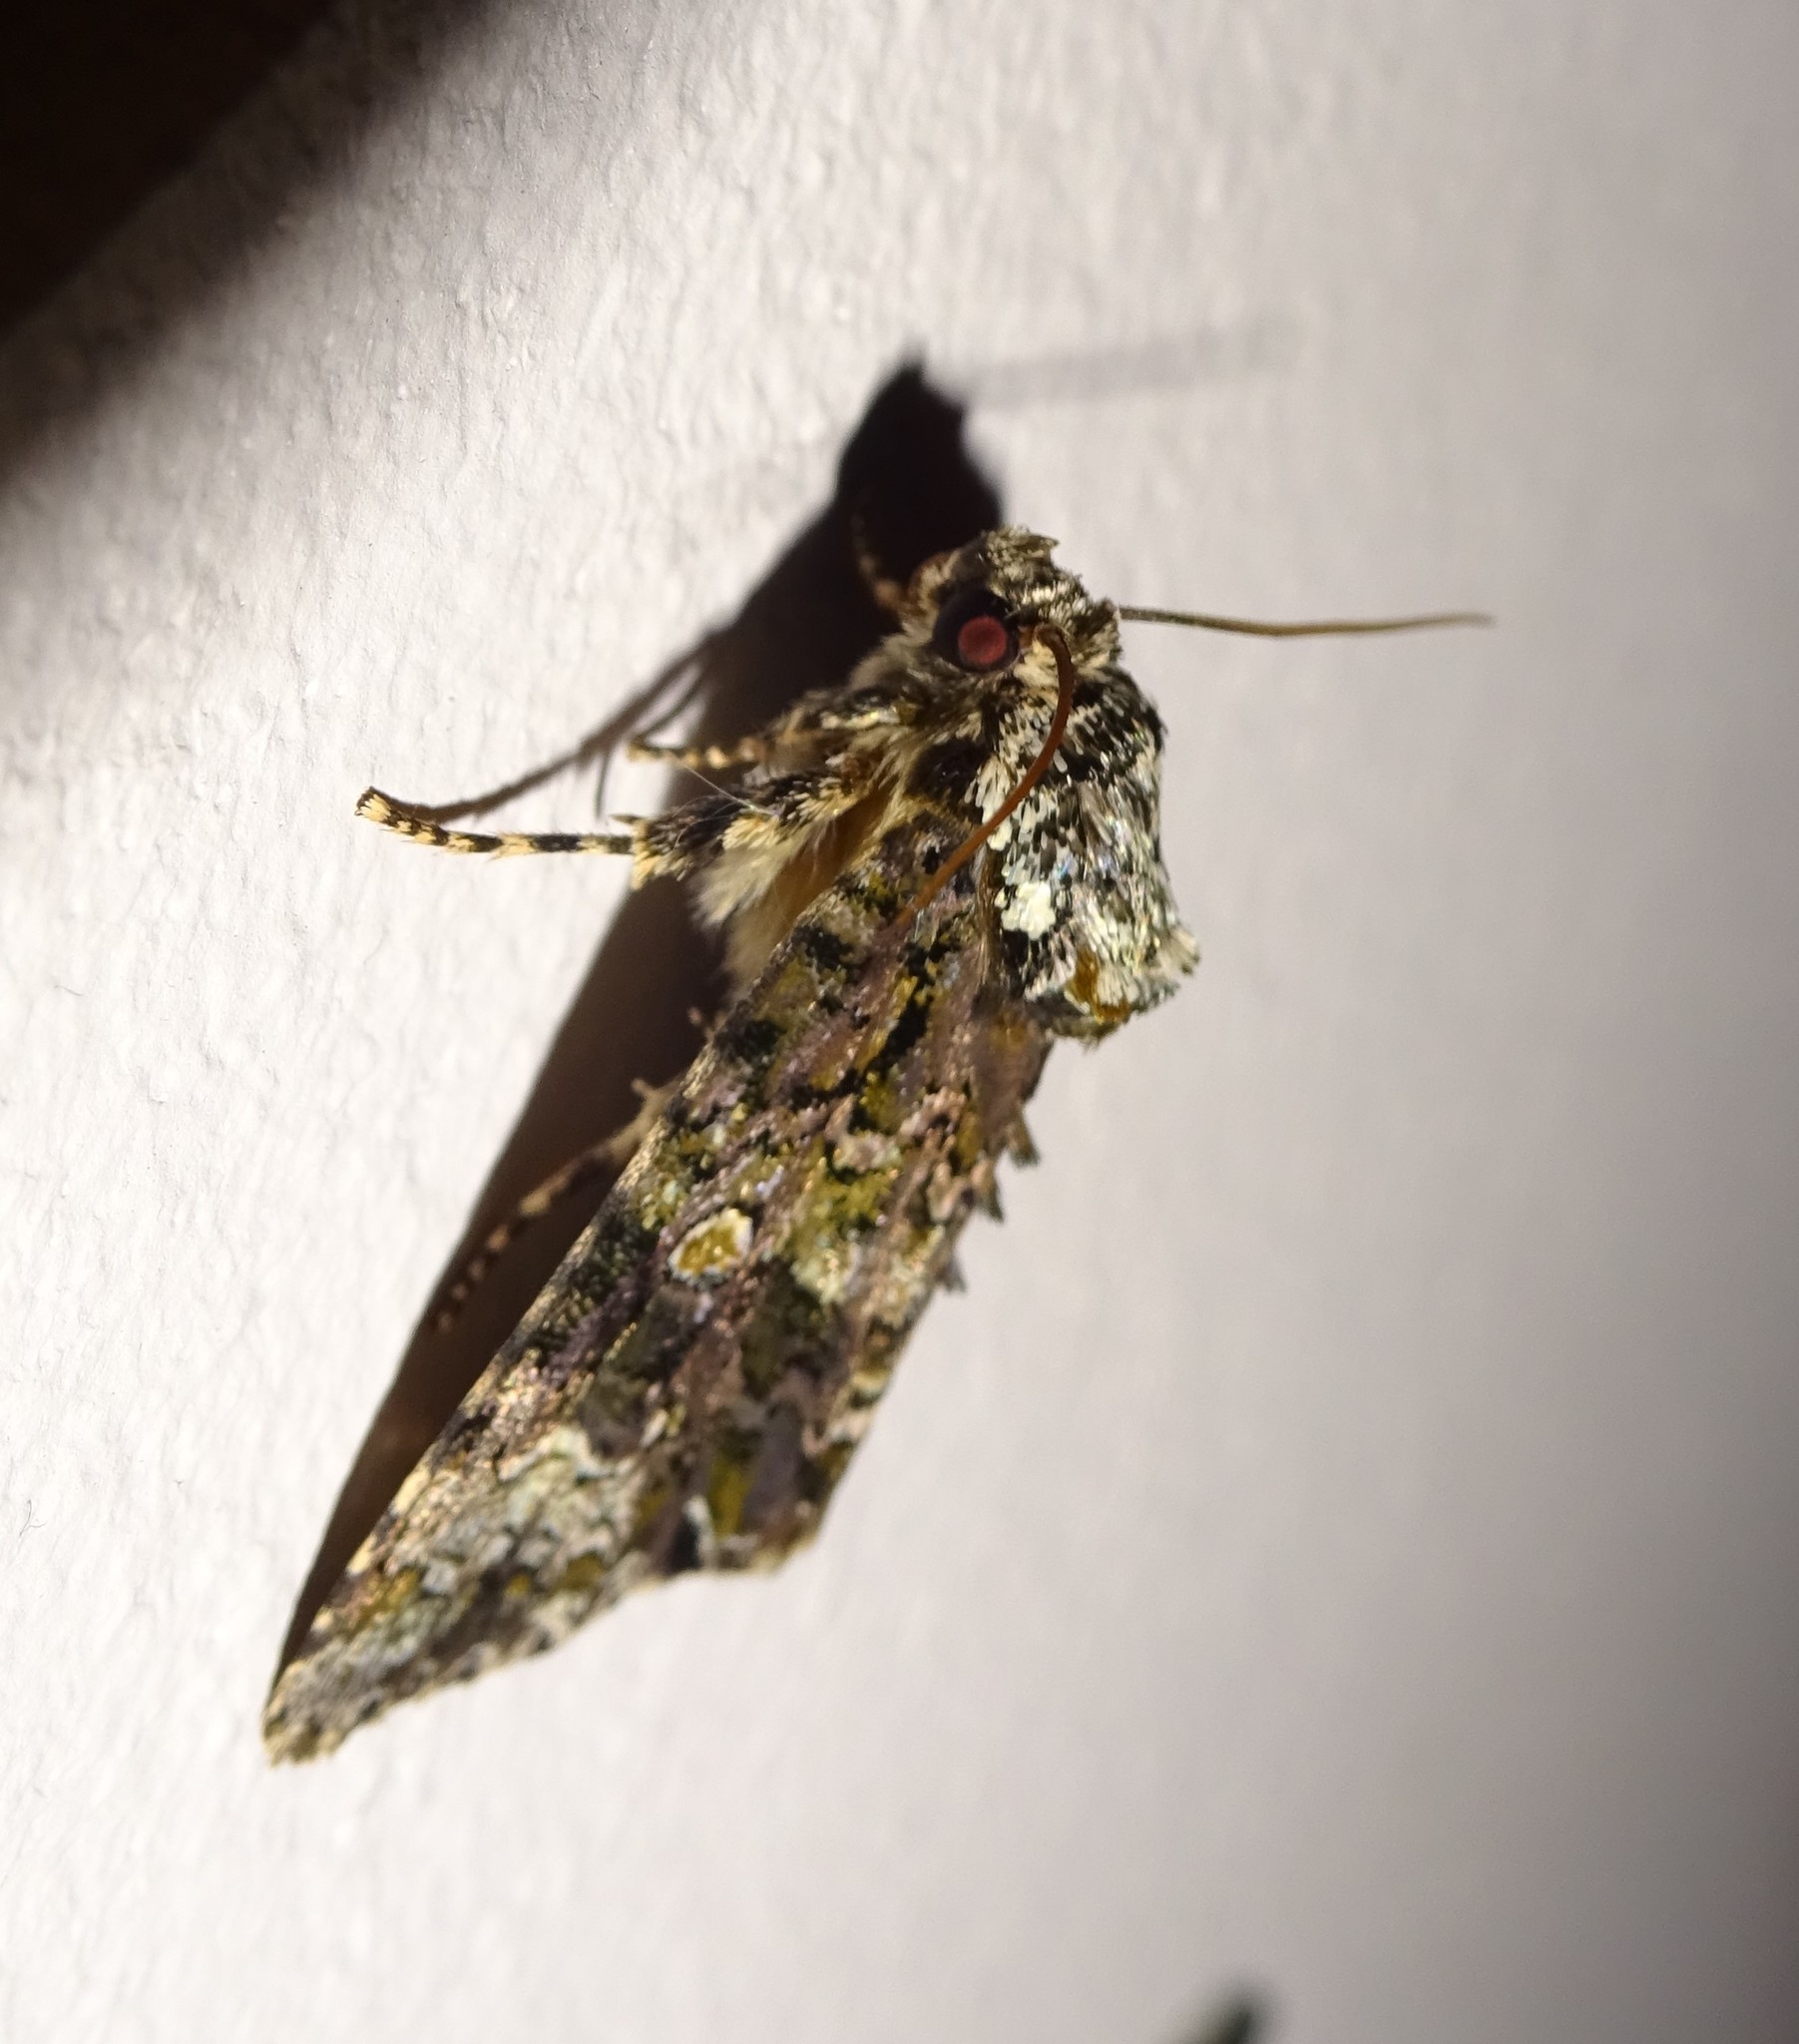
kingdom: Animalia
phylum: Arthropoda
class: Insecta
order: Lepidoptera
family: Noctuidae
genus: Craniophora
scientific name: Craniophora ligustri
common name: Coronet
